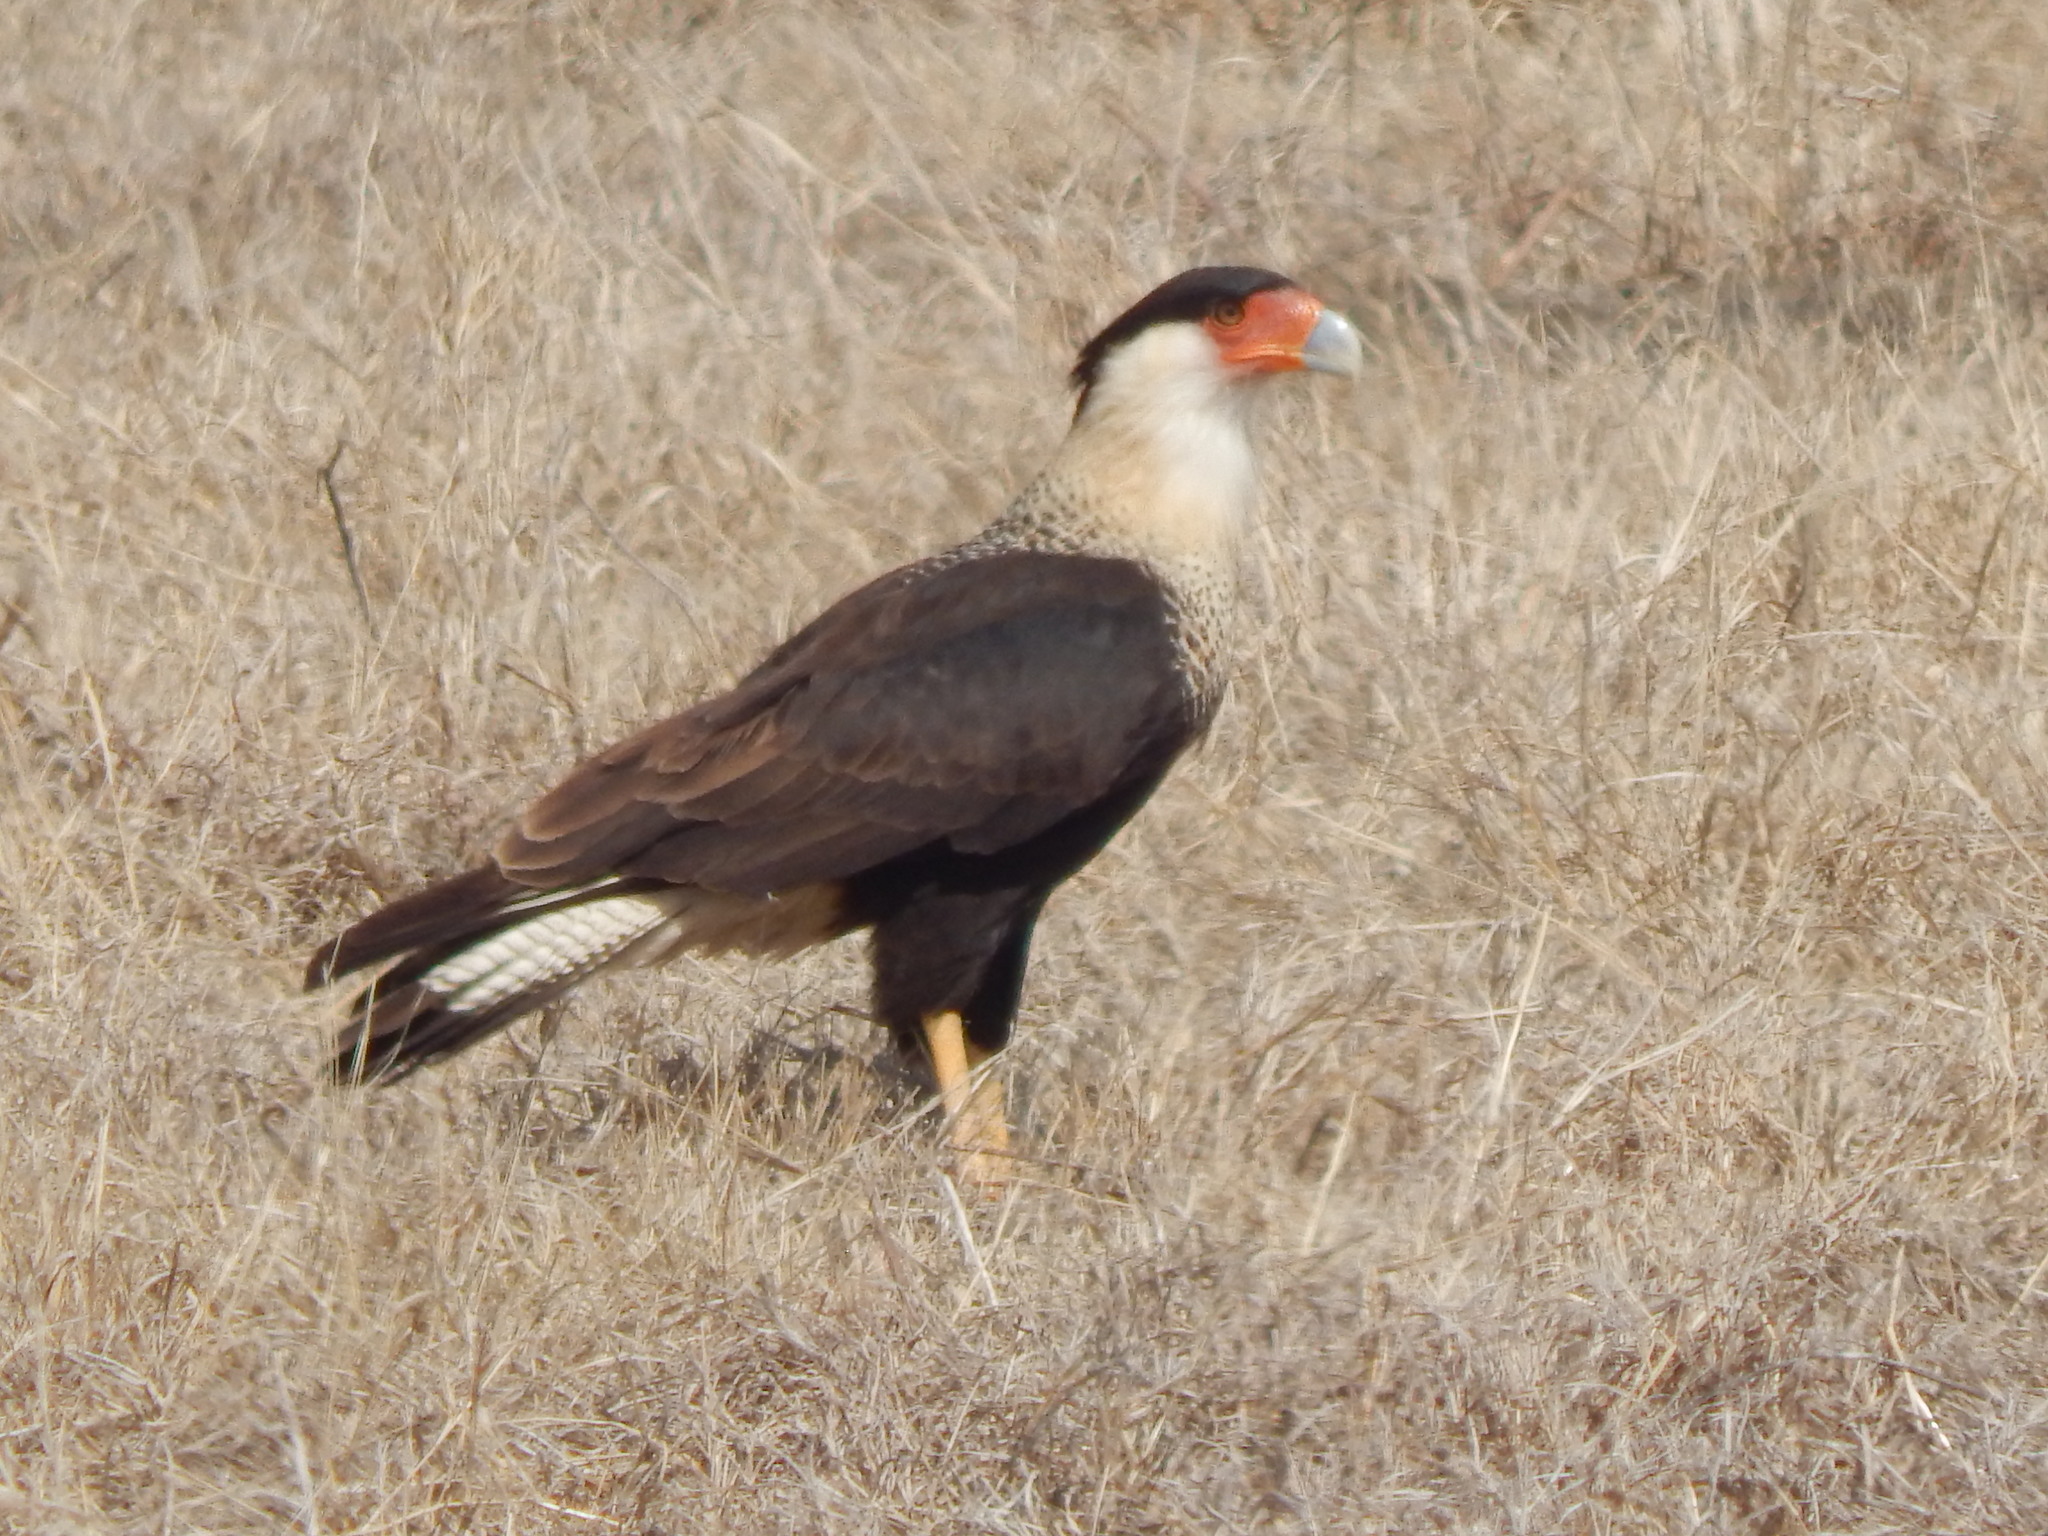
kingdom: Animalia
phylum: Chordata
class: Aves
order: Falconiformes
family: Falconidae
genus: Caracara
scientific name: Caracara plancus
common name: Southern caracara
